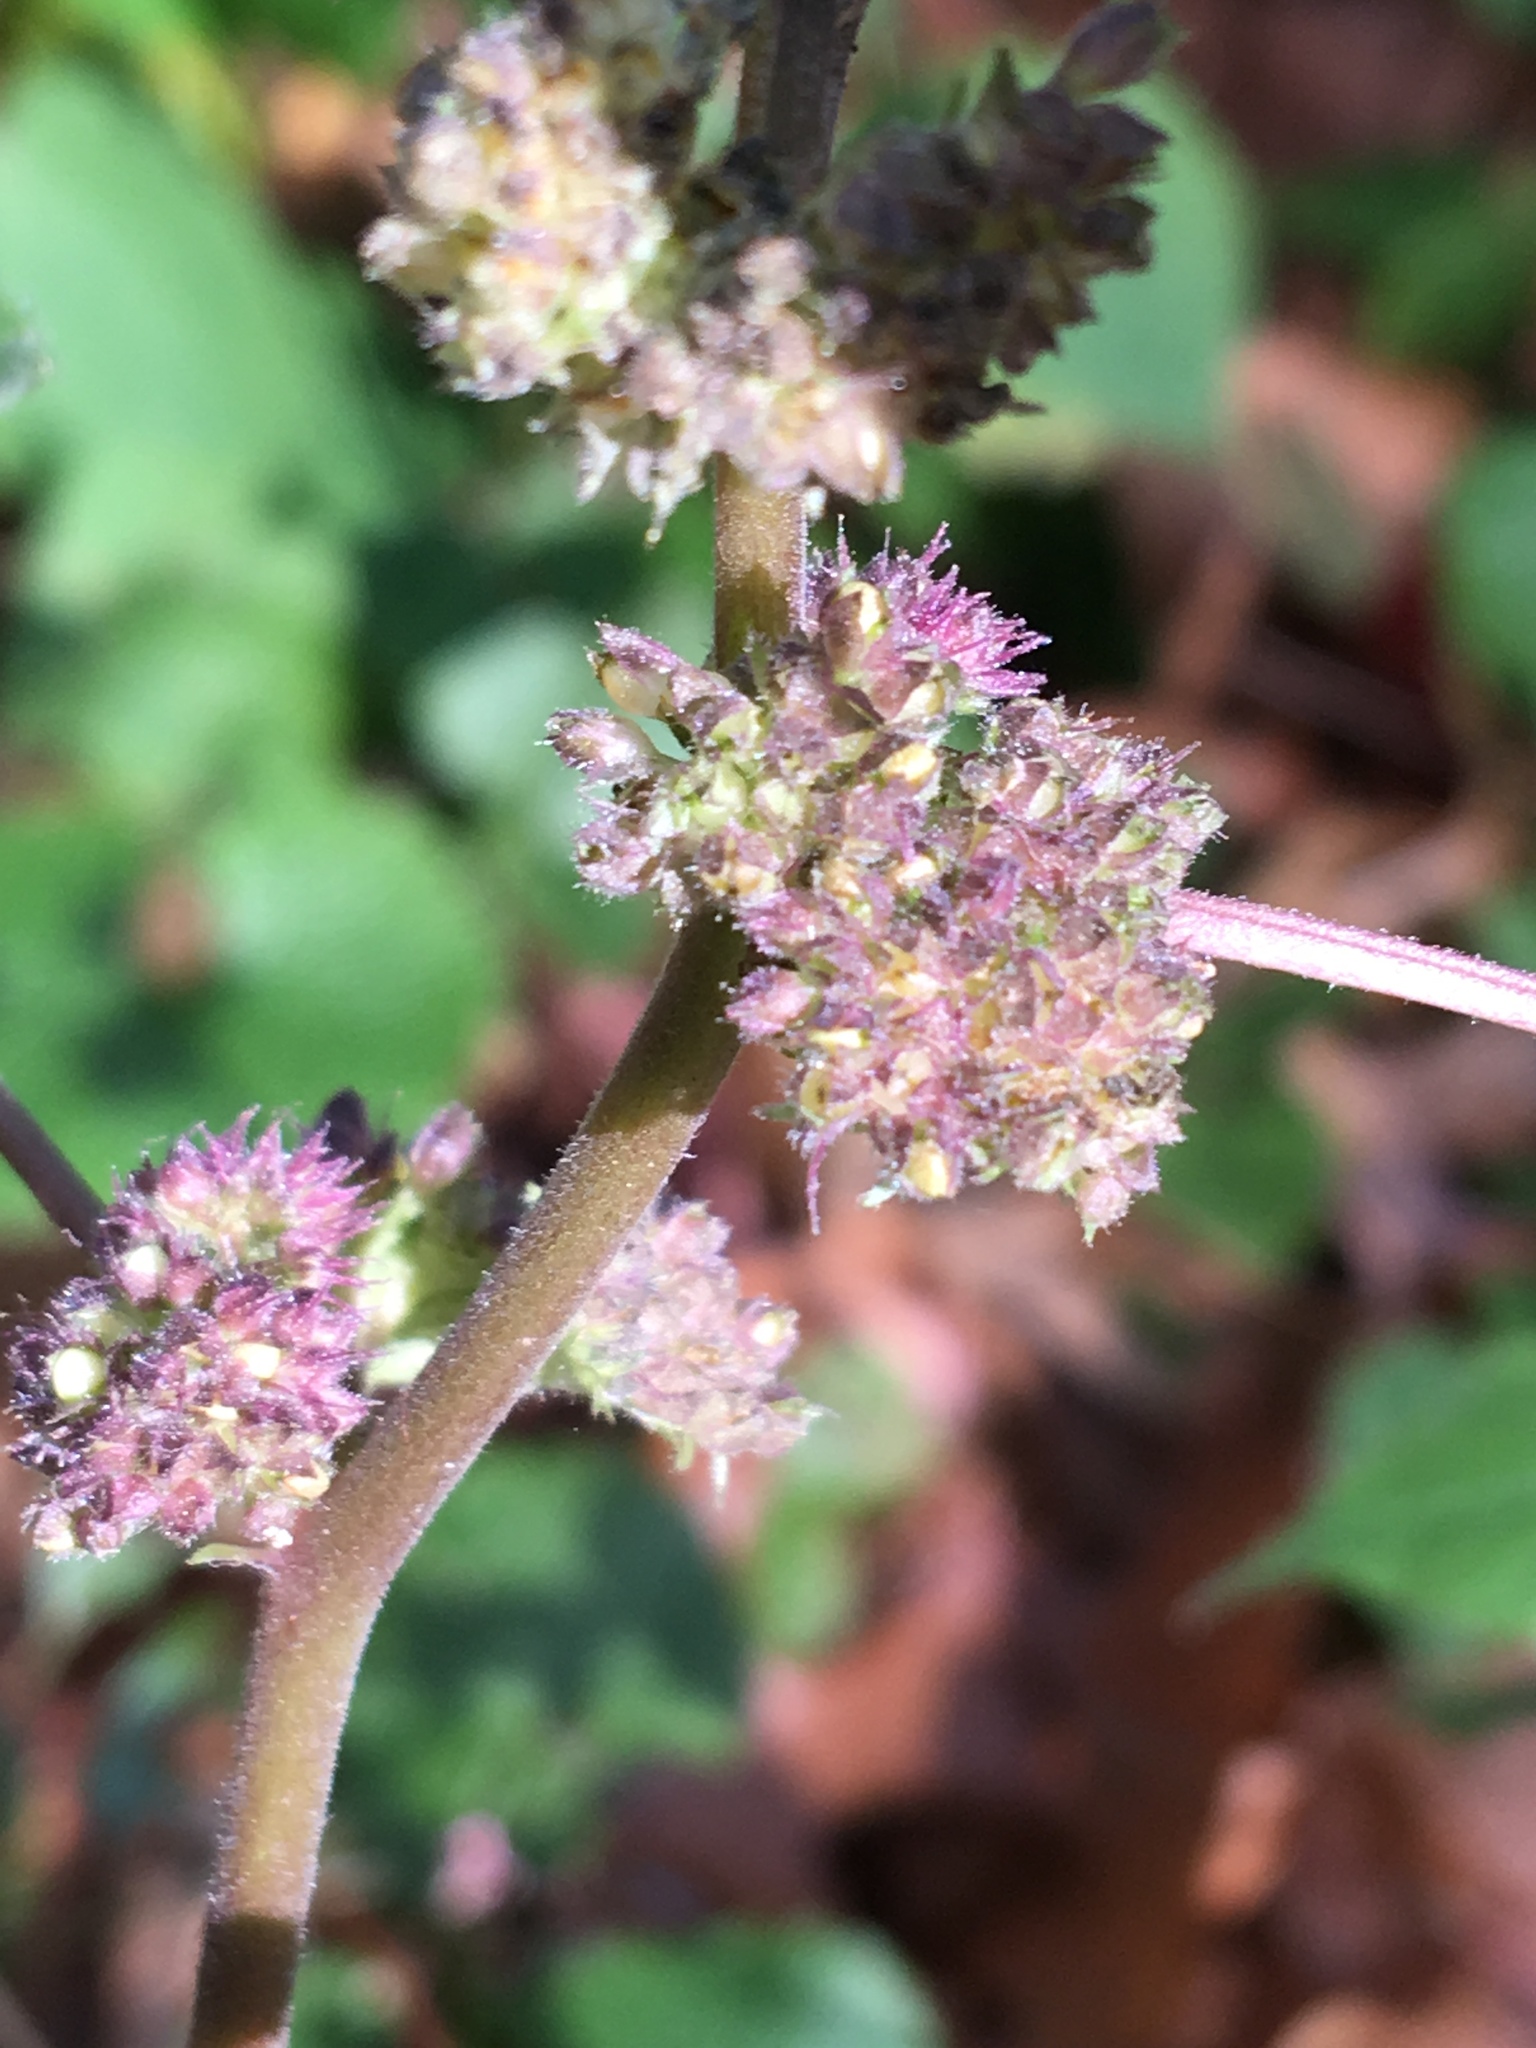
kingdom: Plantae
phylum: Tracheophyta
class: Magnoliopsida
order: Rosales
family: Moraceae
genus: Fatoua
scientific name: Fatoua villosa
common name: Hairy crabweed
